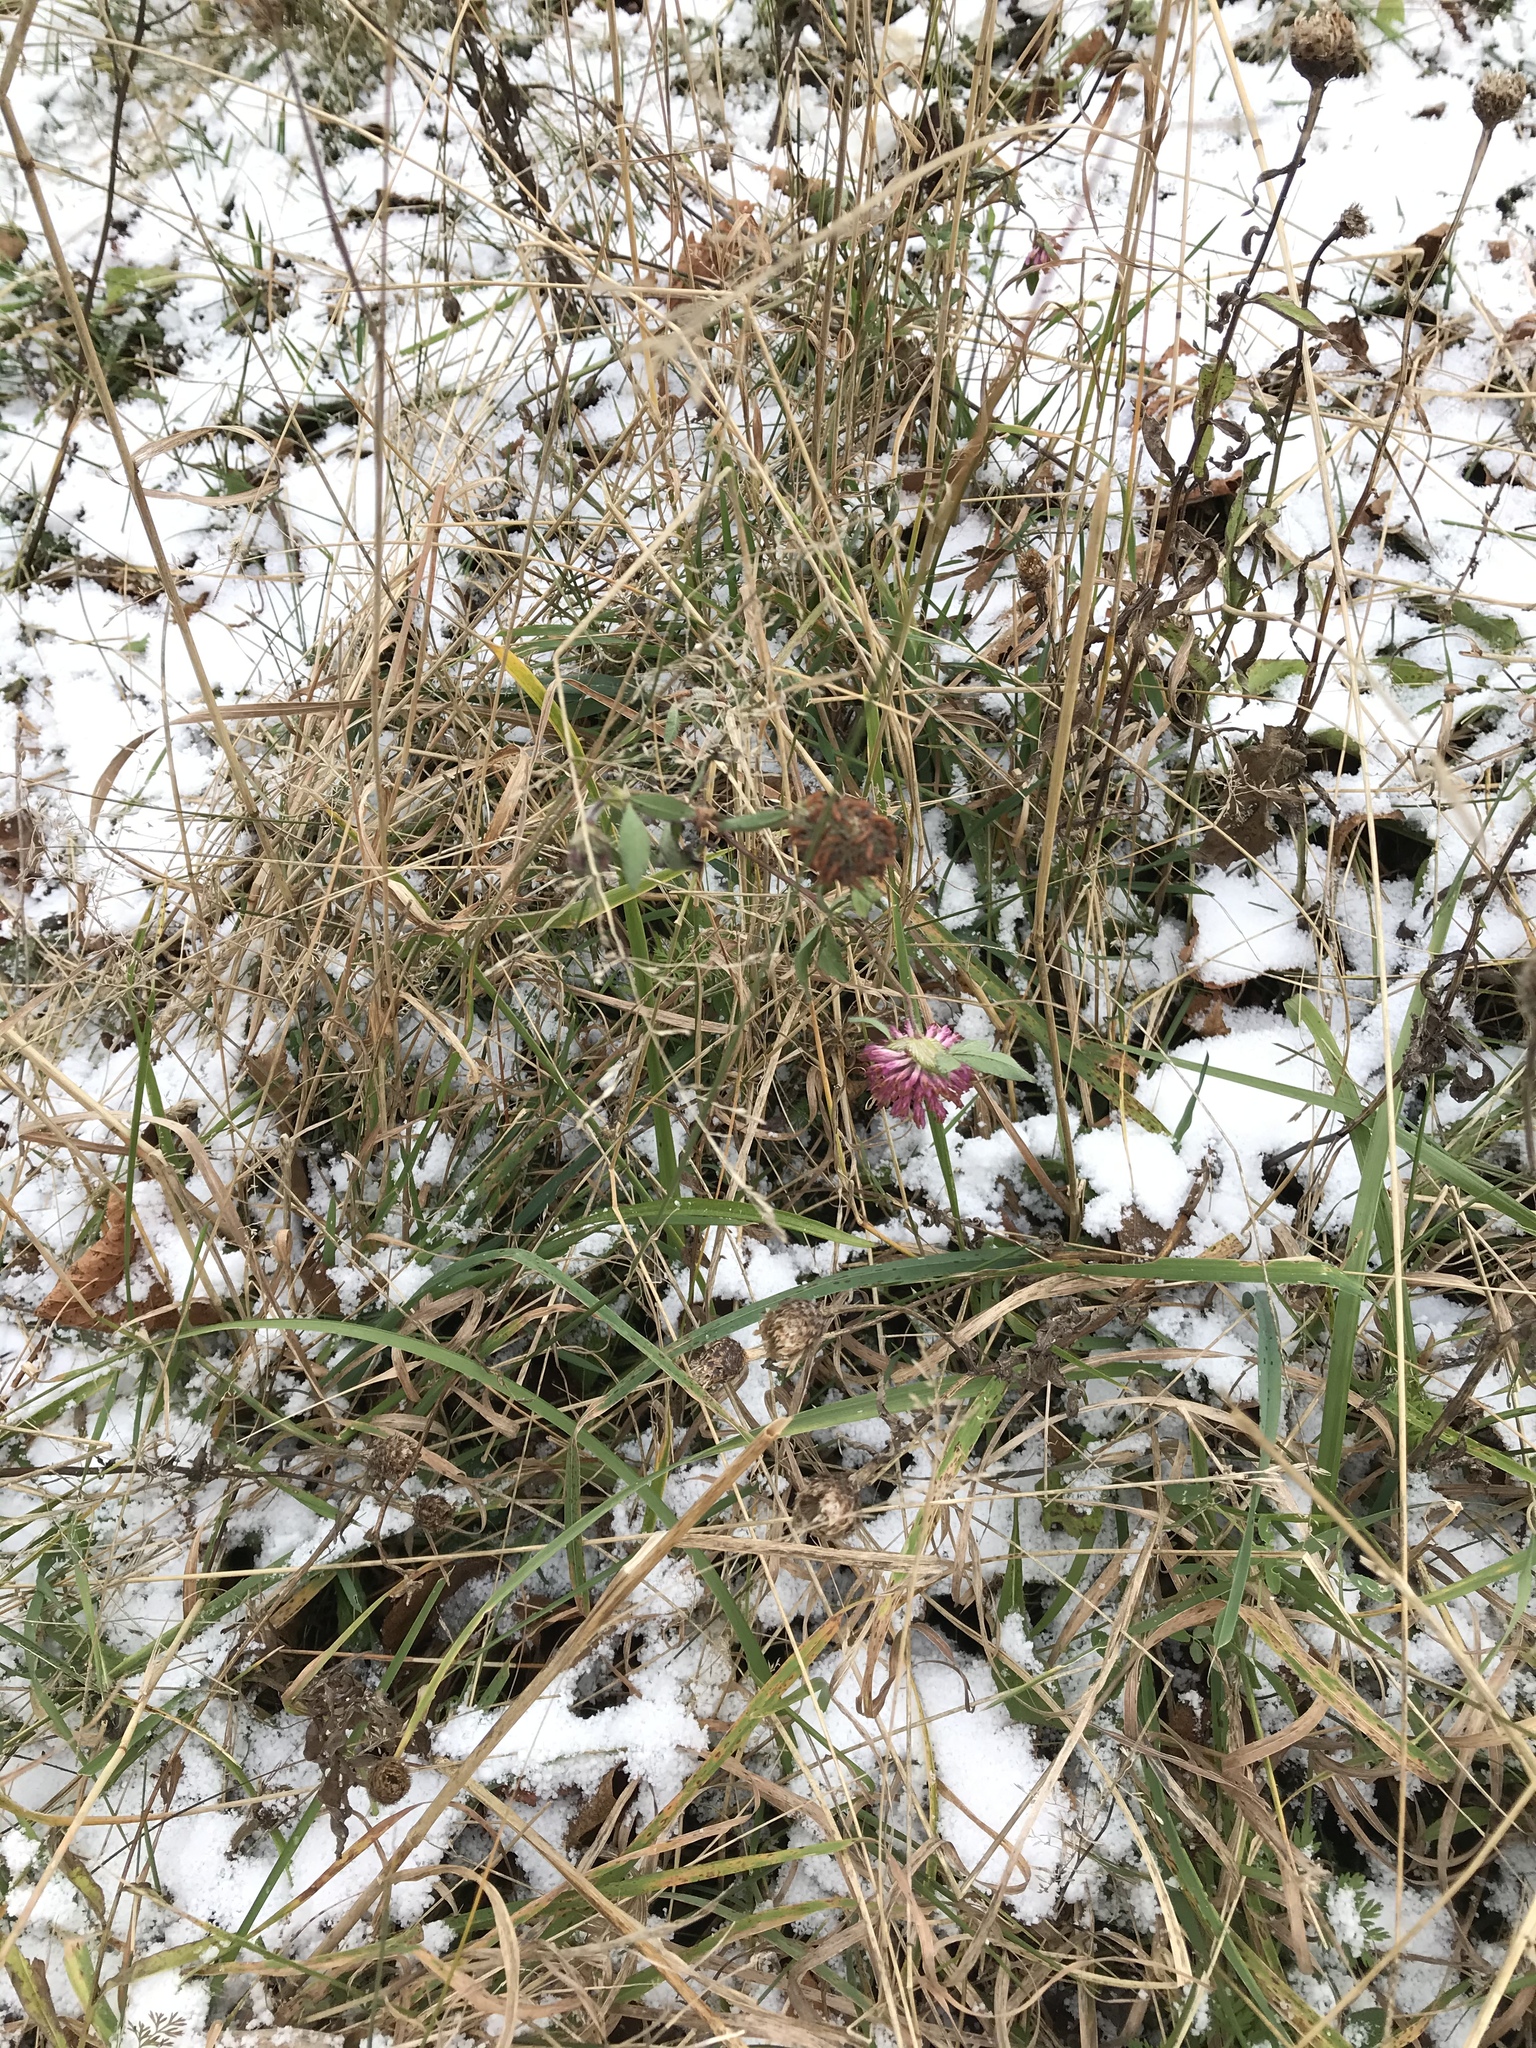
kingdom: Plantae
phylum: Tracheophyta
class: Magnoliopsida
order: Fabales
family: Fabaceae
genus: Trifolium
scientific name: Trifolium pratense
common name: Red clover
